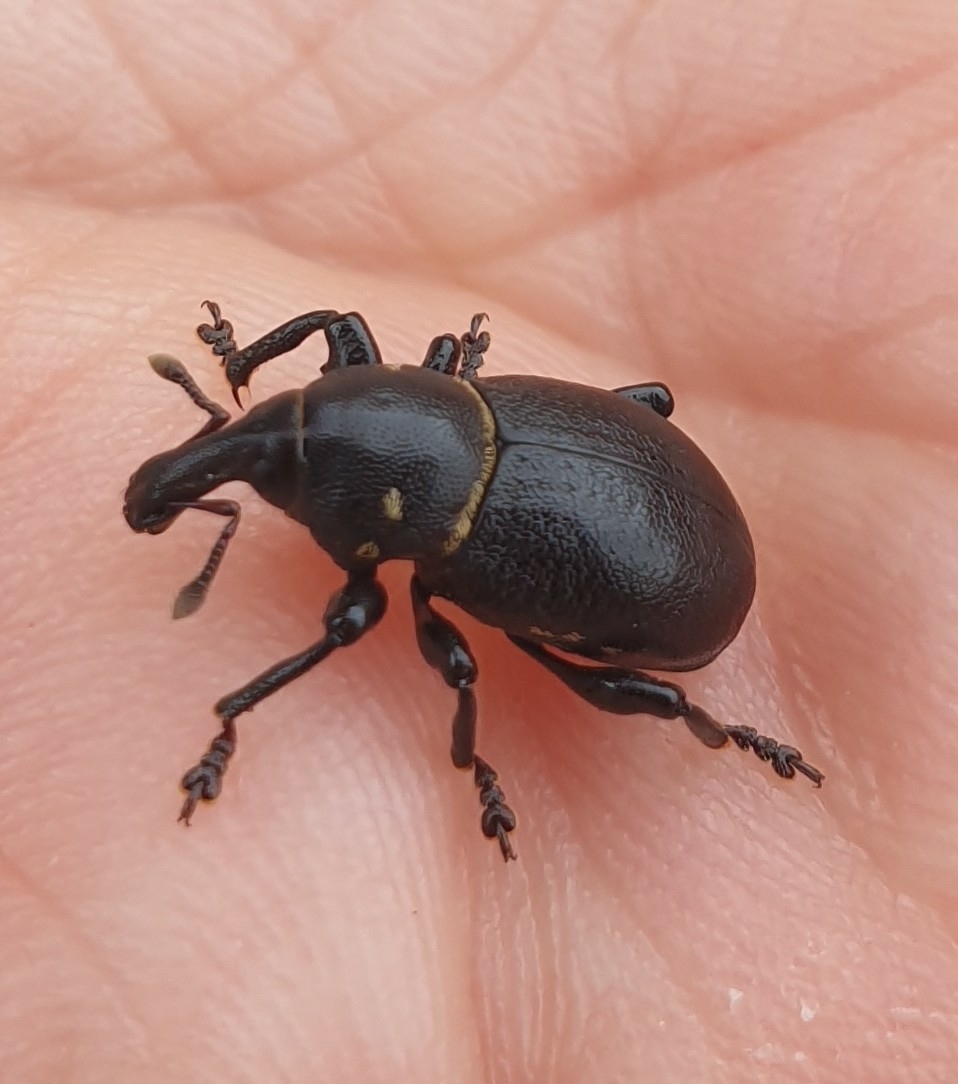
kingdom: Animalia
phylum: Arthropoda
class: Insecta
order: Coleoptera
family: Curculionidae
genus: Liparus
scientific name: Liparus coronatus
